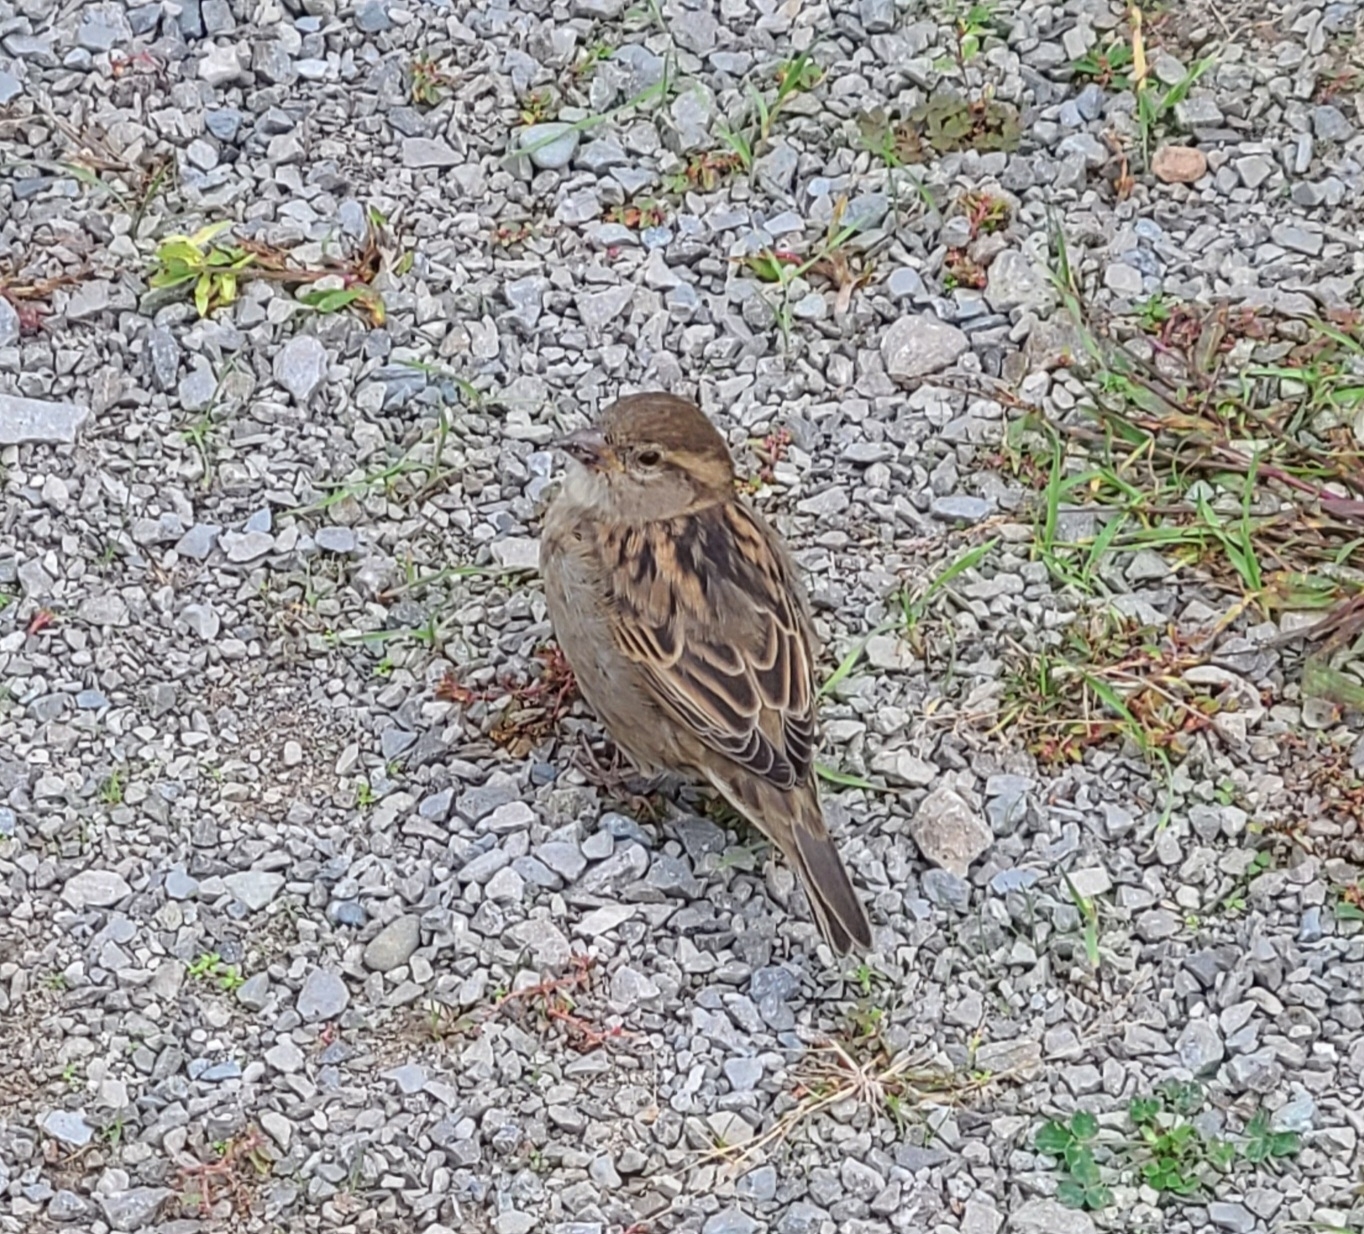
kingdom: Animalia
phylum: Chordata
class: Aves
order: Passeriformes
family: Passeridae
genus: Passer
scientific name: Passer domesticus
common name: House sparrow
